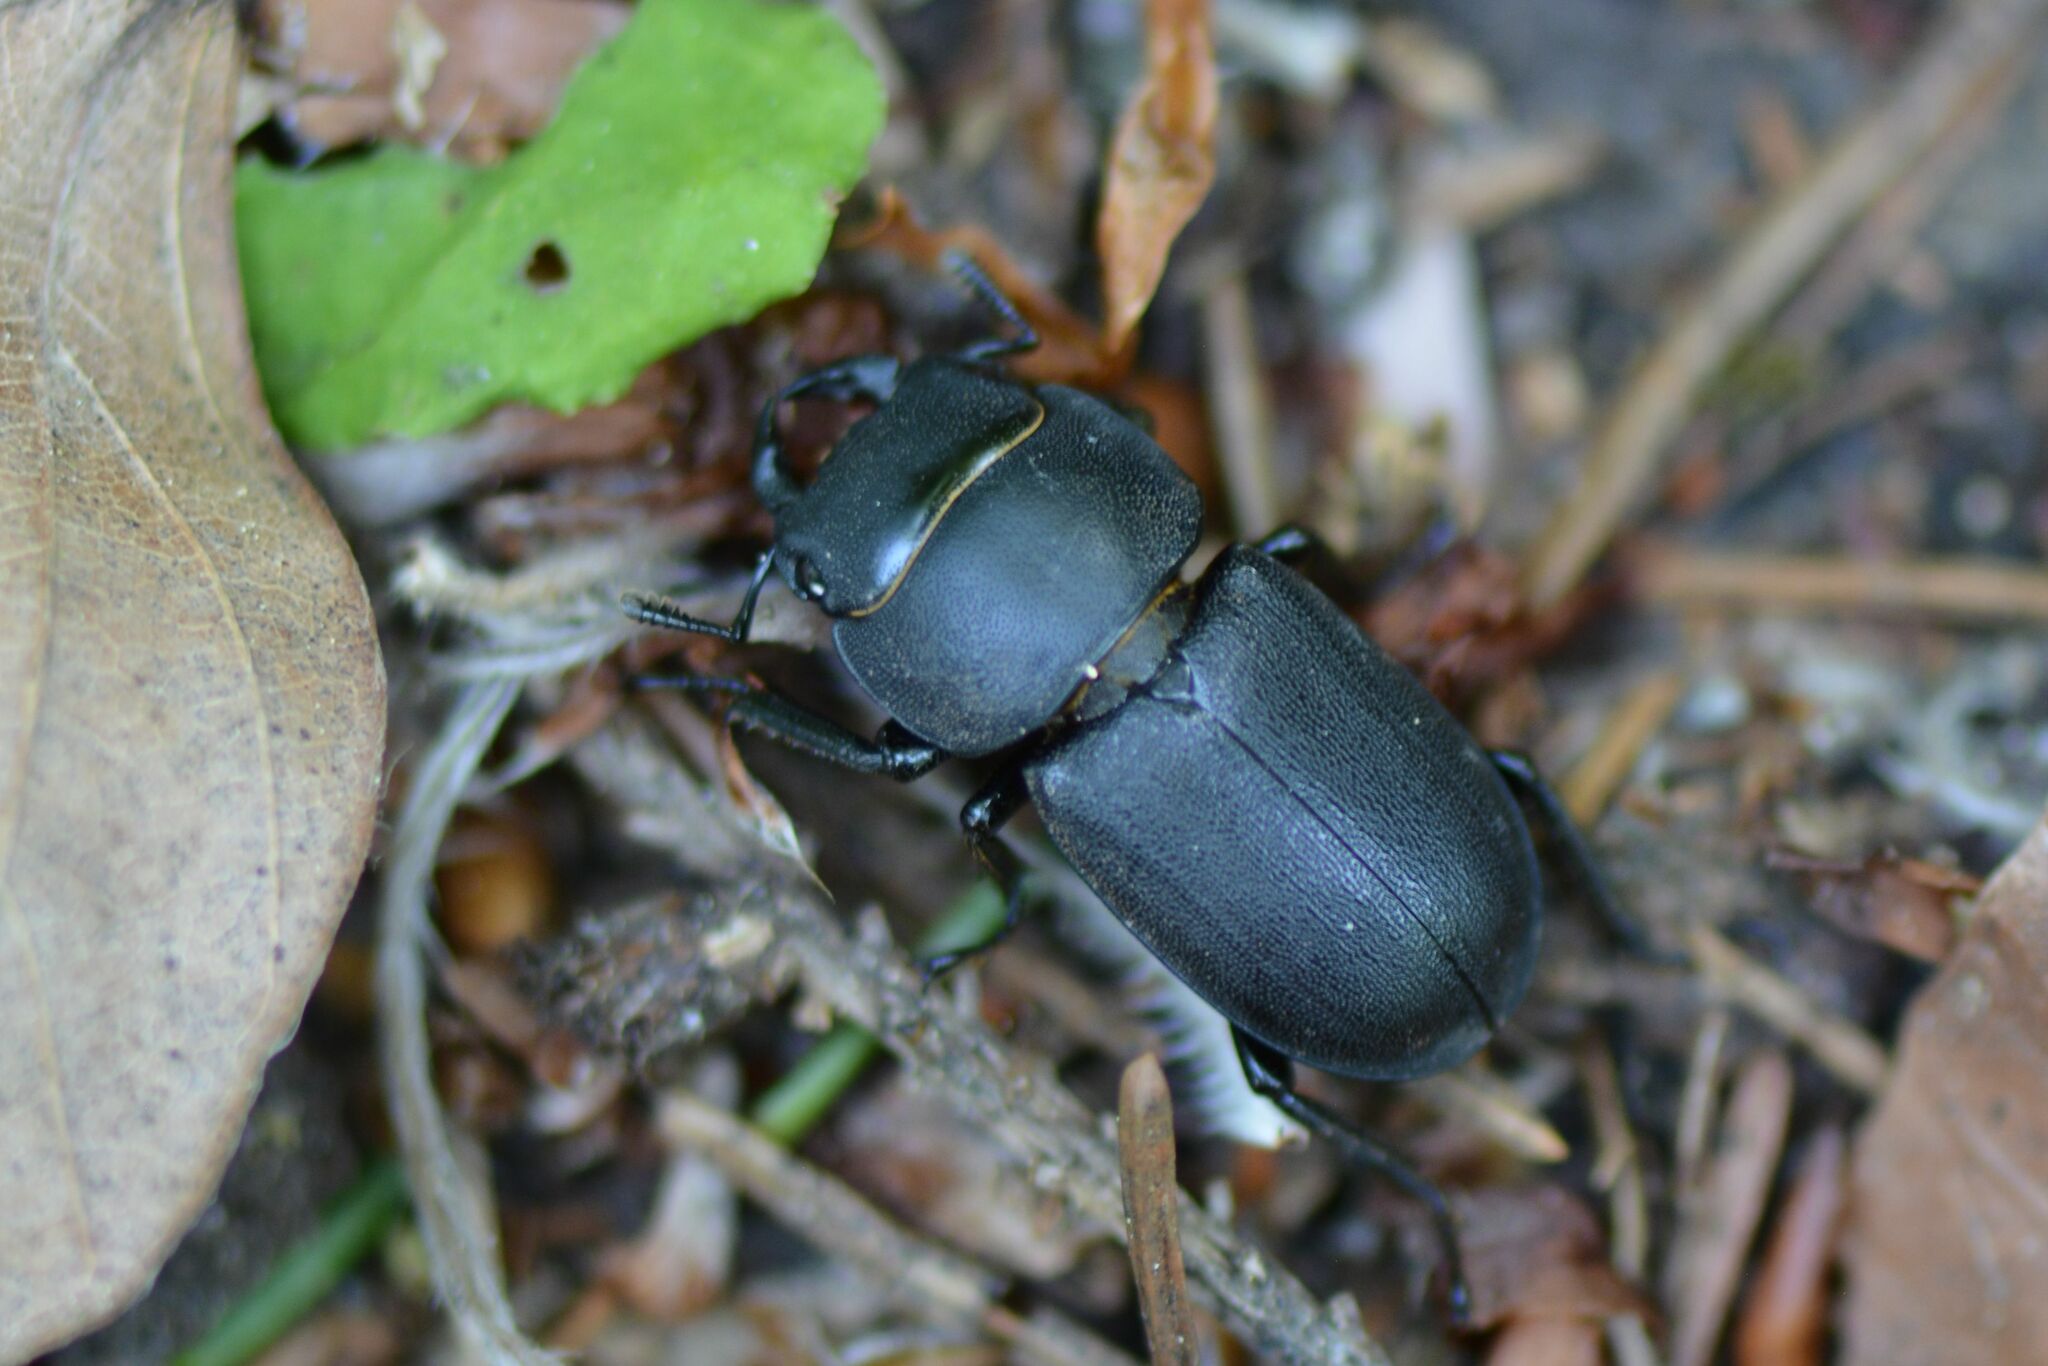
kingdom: Animalia
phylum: Arthropoda
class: Insecta
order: Coleoptera
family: Lucanidae
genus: Dorcus
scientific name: Dorcus parallelipipedus
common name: Lesser stag beetle
